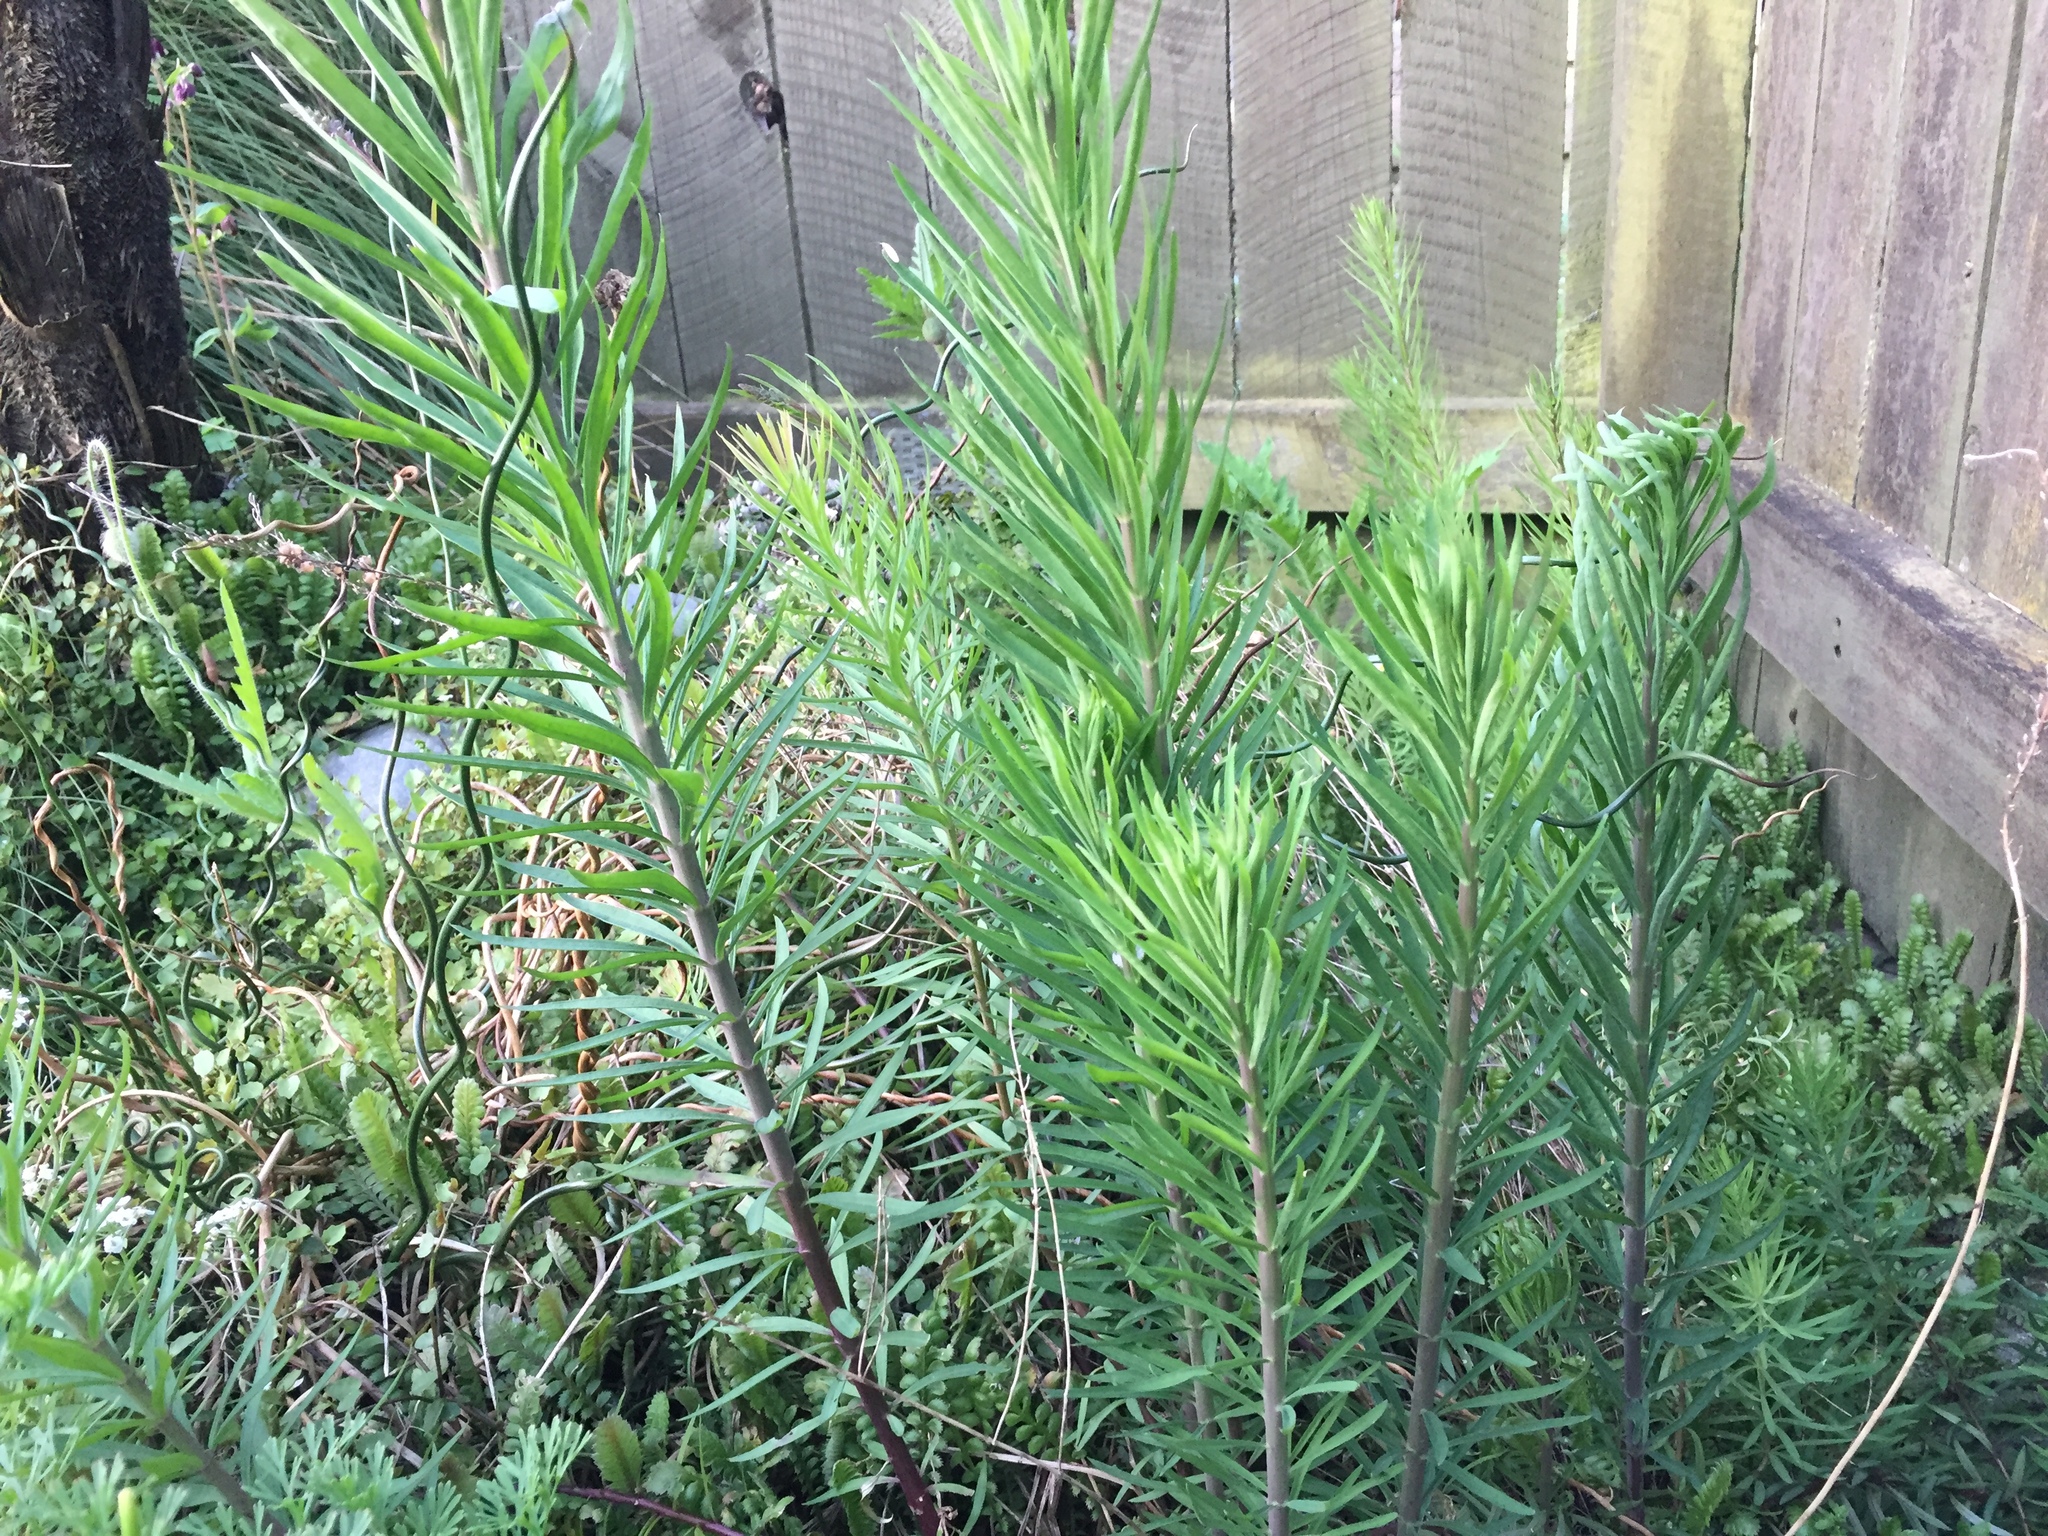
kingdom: Plantae
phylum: Tracheophyta
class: Magnoliopsida
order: Lamiales
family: Plantaginaceae
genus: Linaria
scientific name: Linaria purpurea
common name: Purple toadflax
